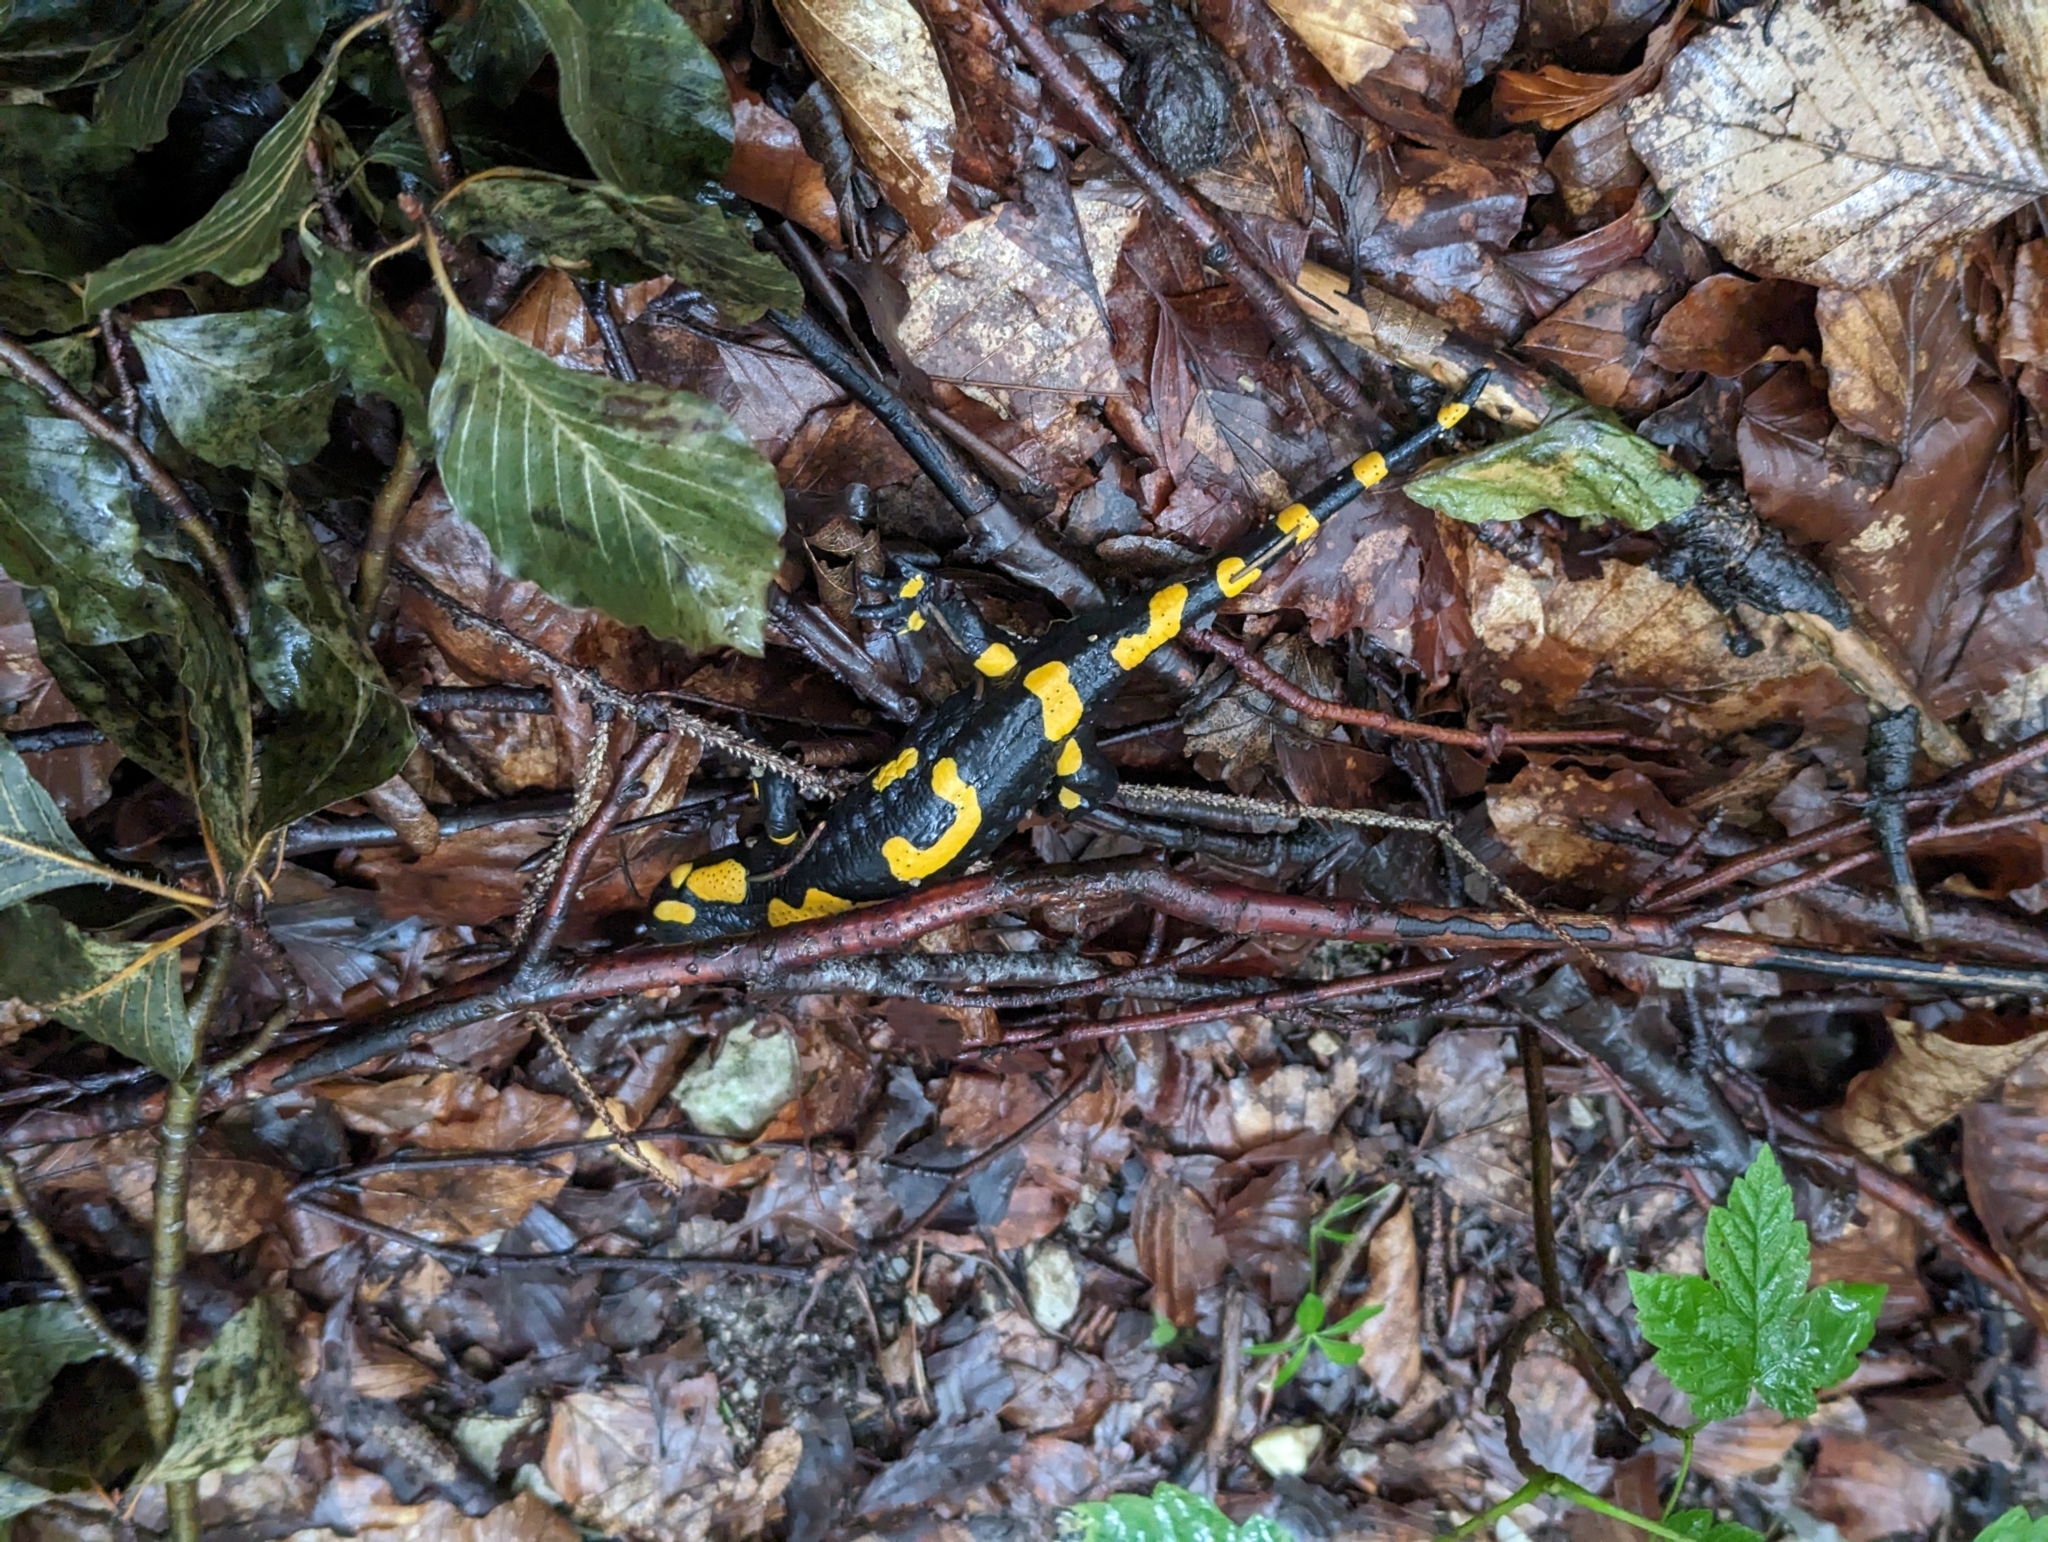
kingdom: Animalia
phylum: Chordata
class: Amphibia
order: Caudata
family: Salamandridae
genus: Salamandra
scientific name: Salamandra salamandra
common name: Fire salamander
